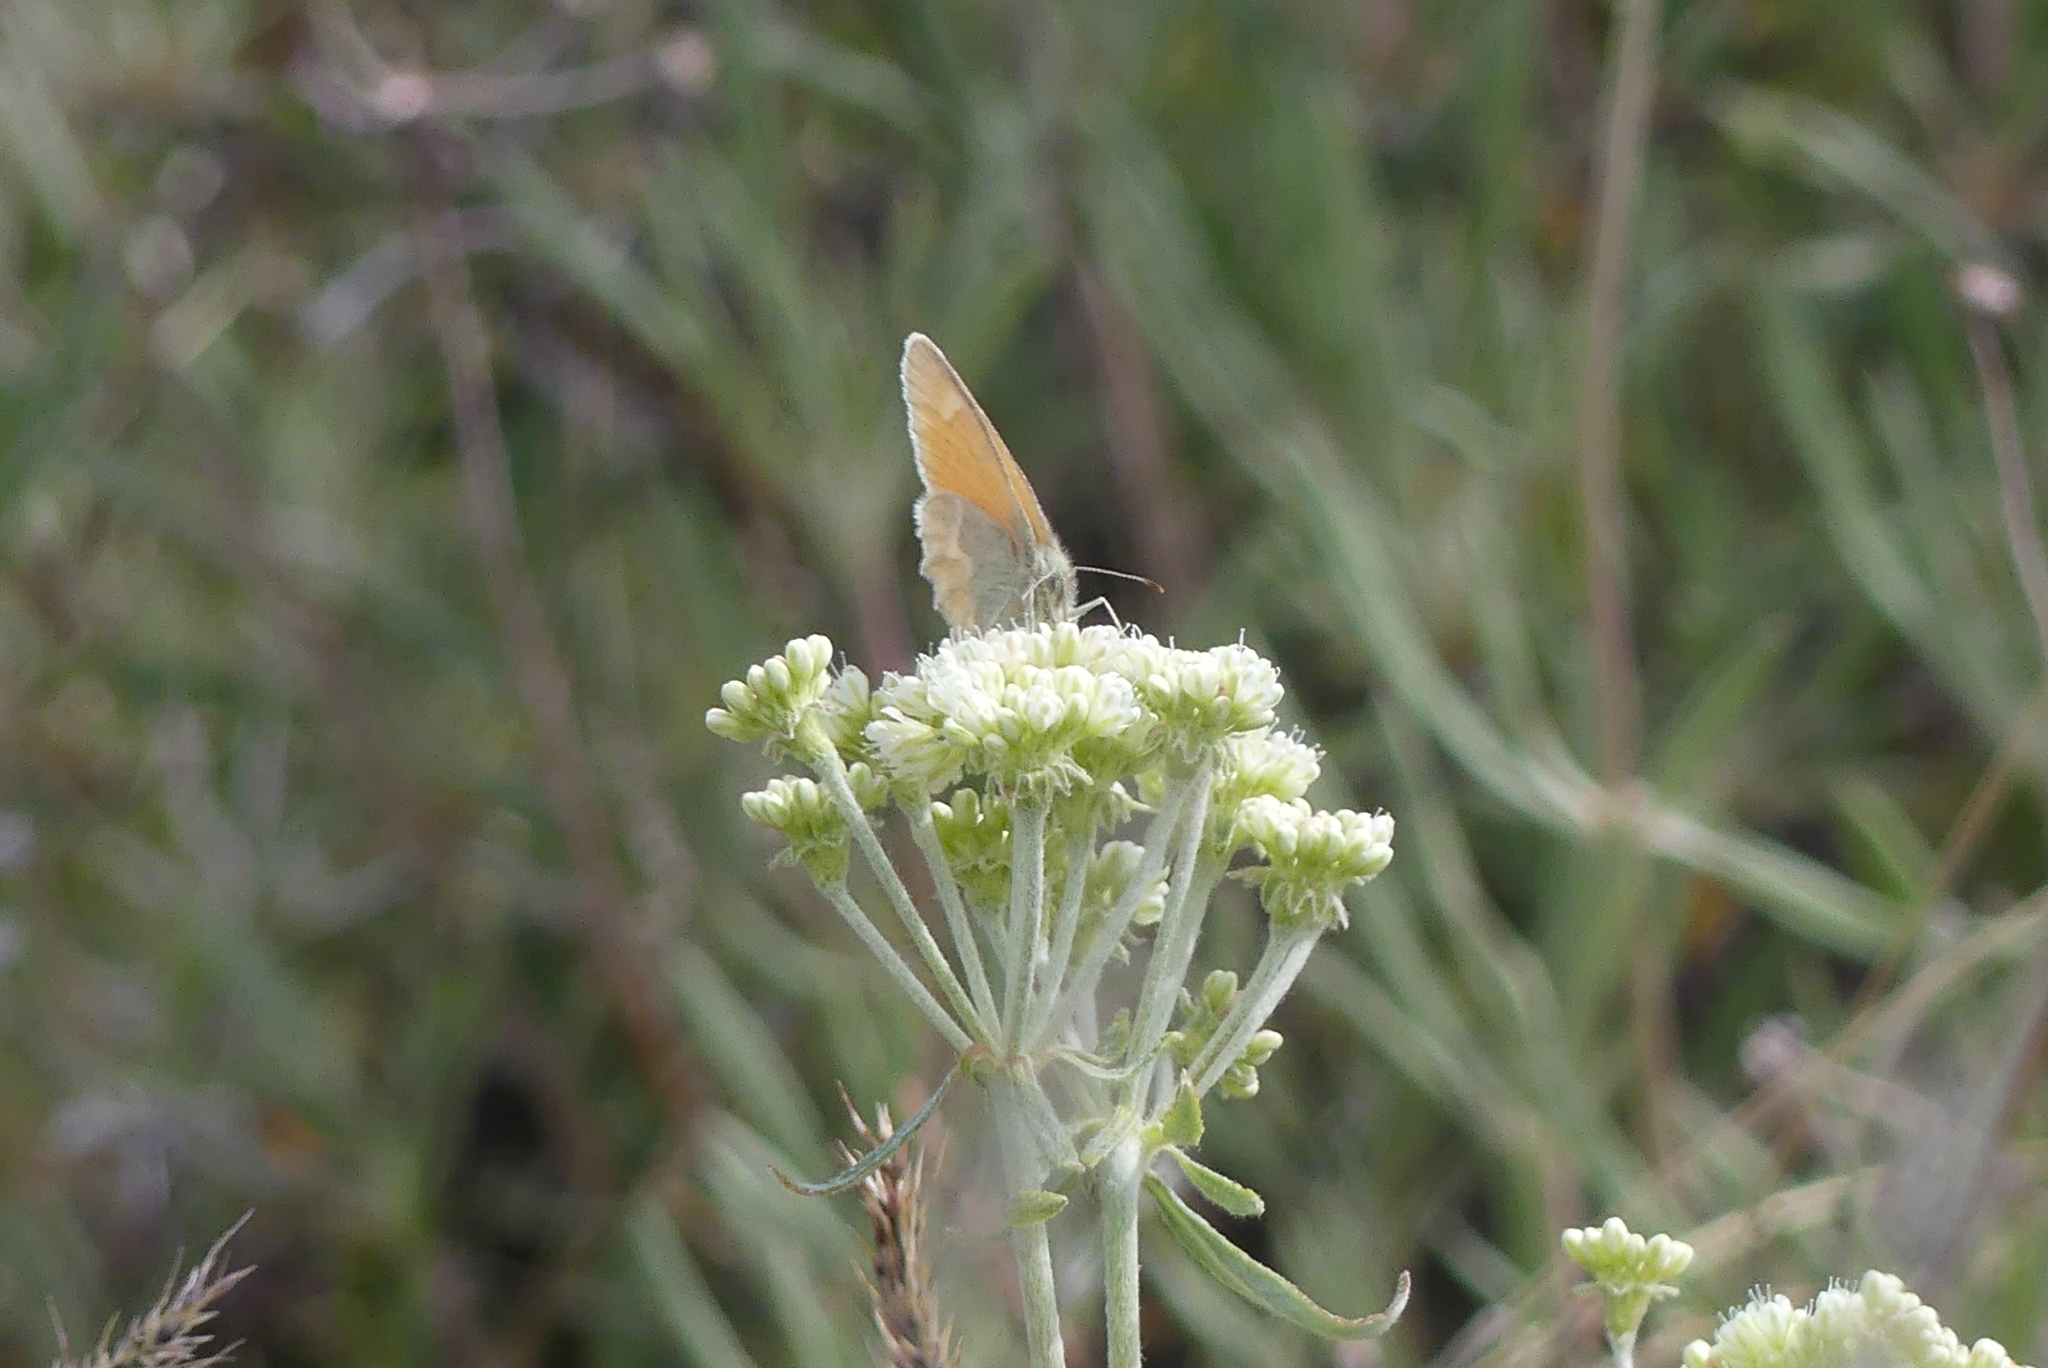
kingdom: Animalia
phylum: Arthropoda
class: Insecta
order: Lepidoptera
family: Nymphalidae
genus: Coenonympha
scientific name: Coenonympha california
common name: Common ringlet
